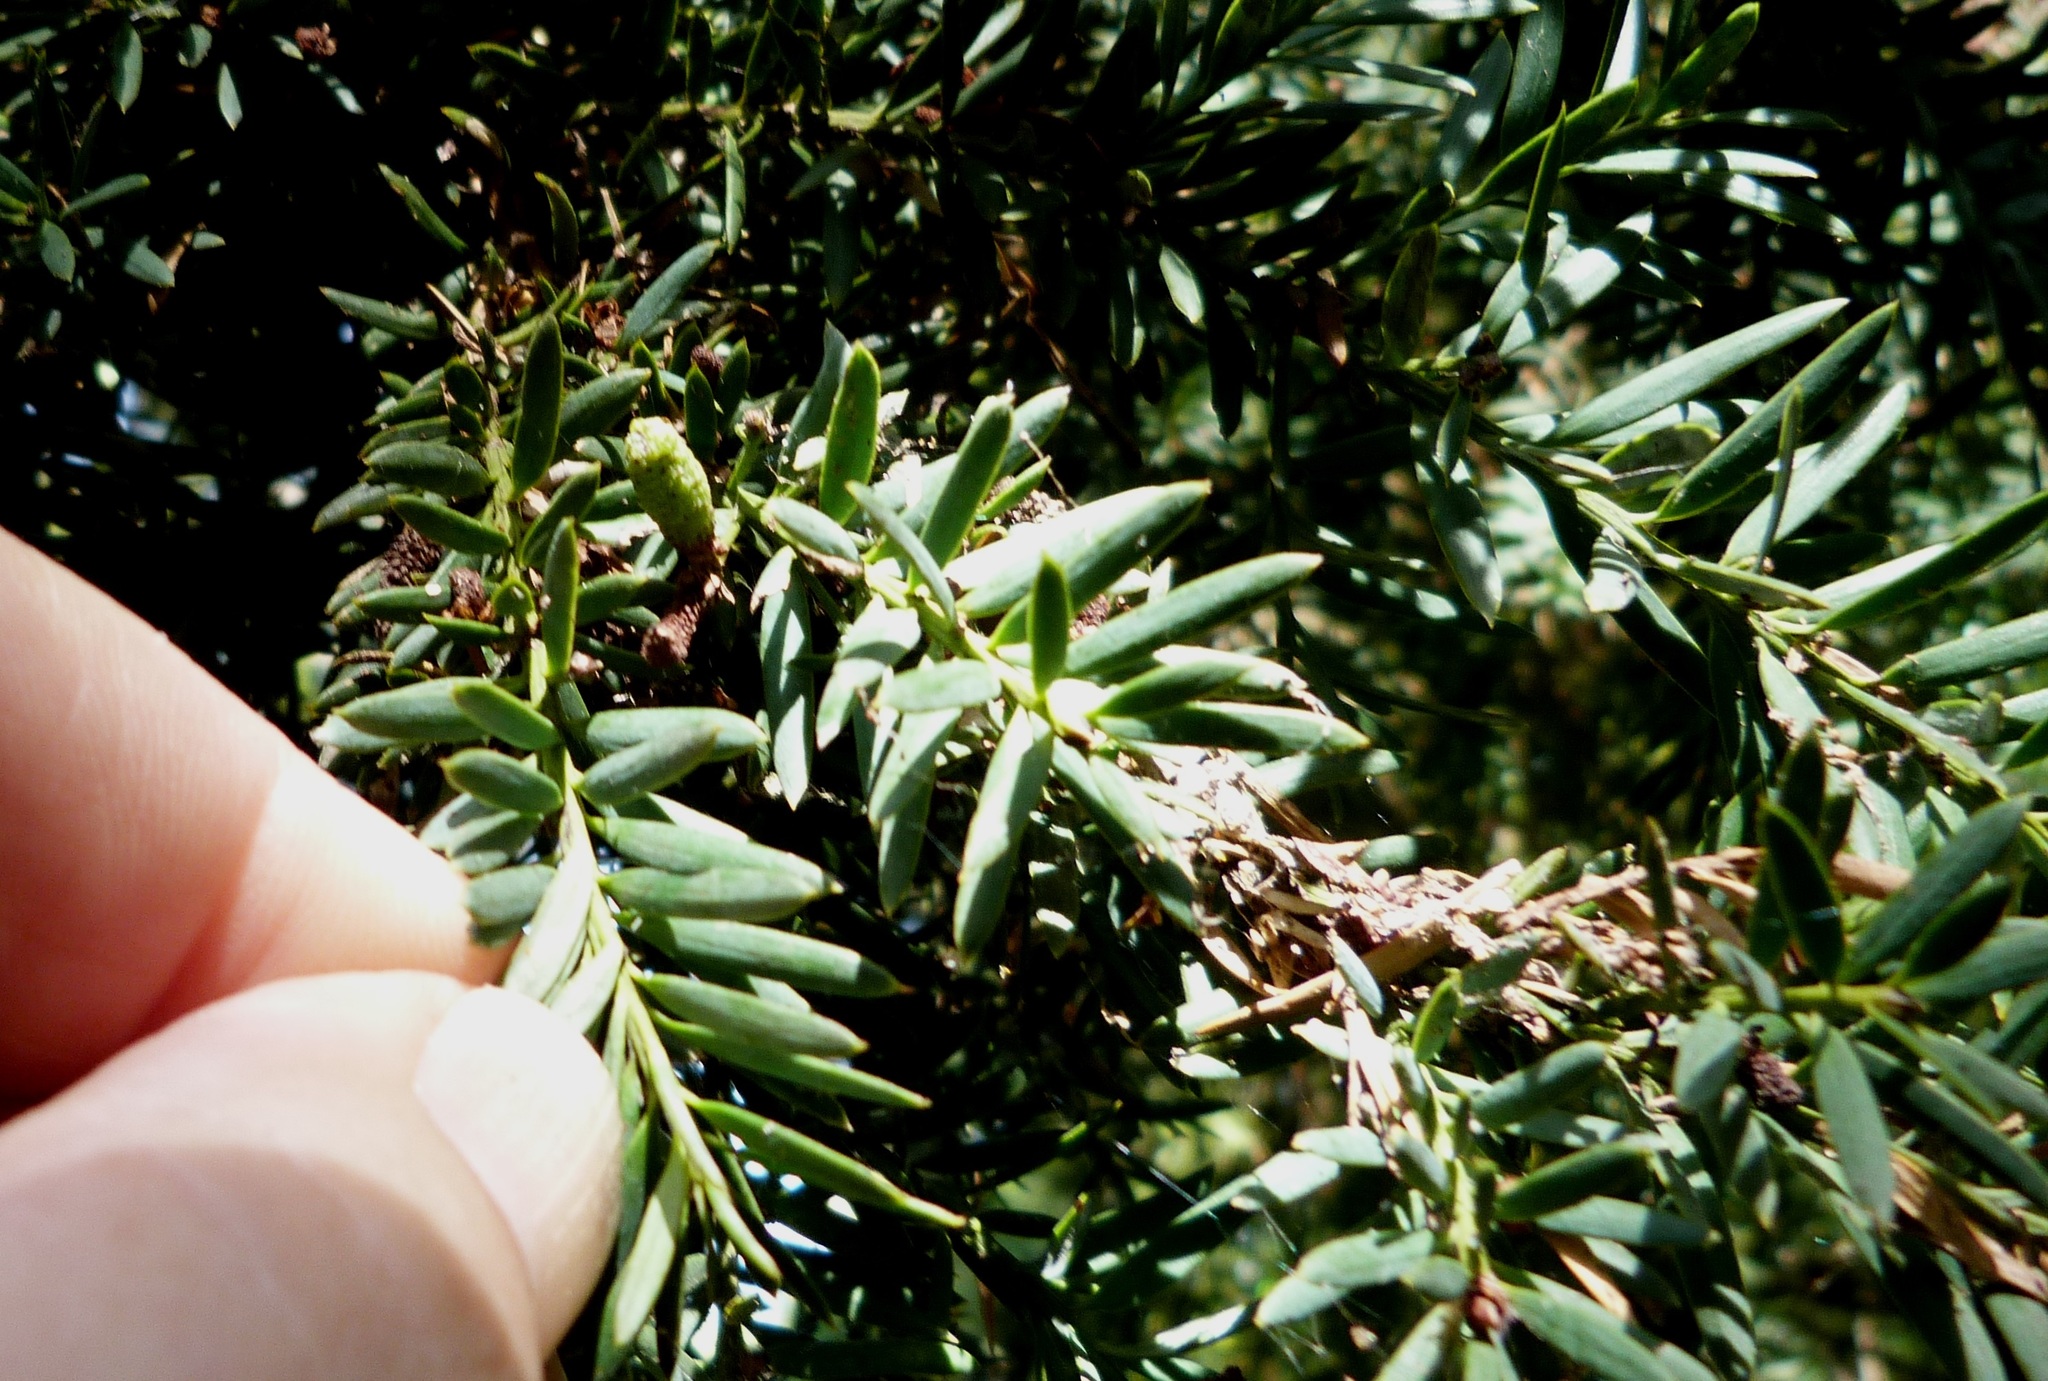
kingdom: Plantae
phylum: Tracheophyta
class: Pinopsida
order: Pinales
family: Podocarpaceae
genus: Podocarpus
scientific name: Podocarpus totara
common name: Totara
